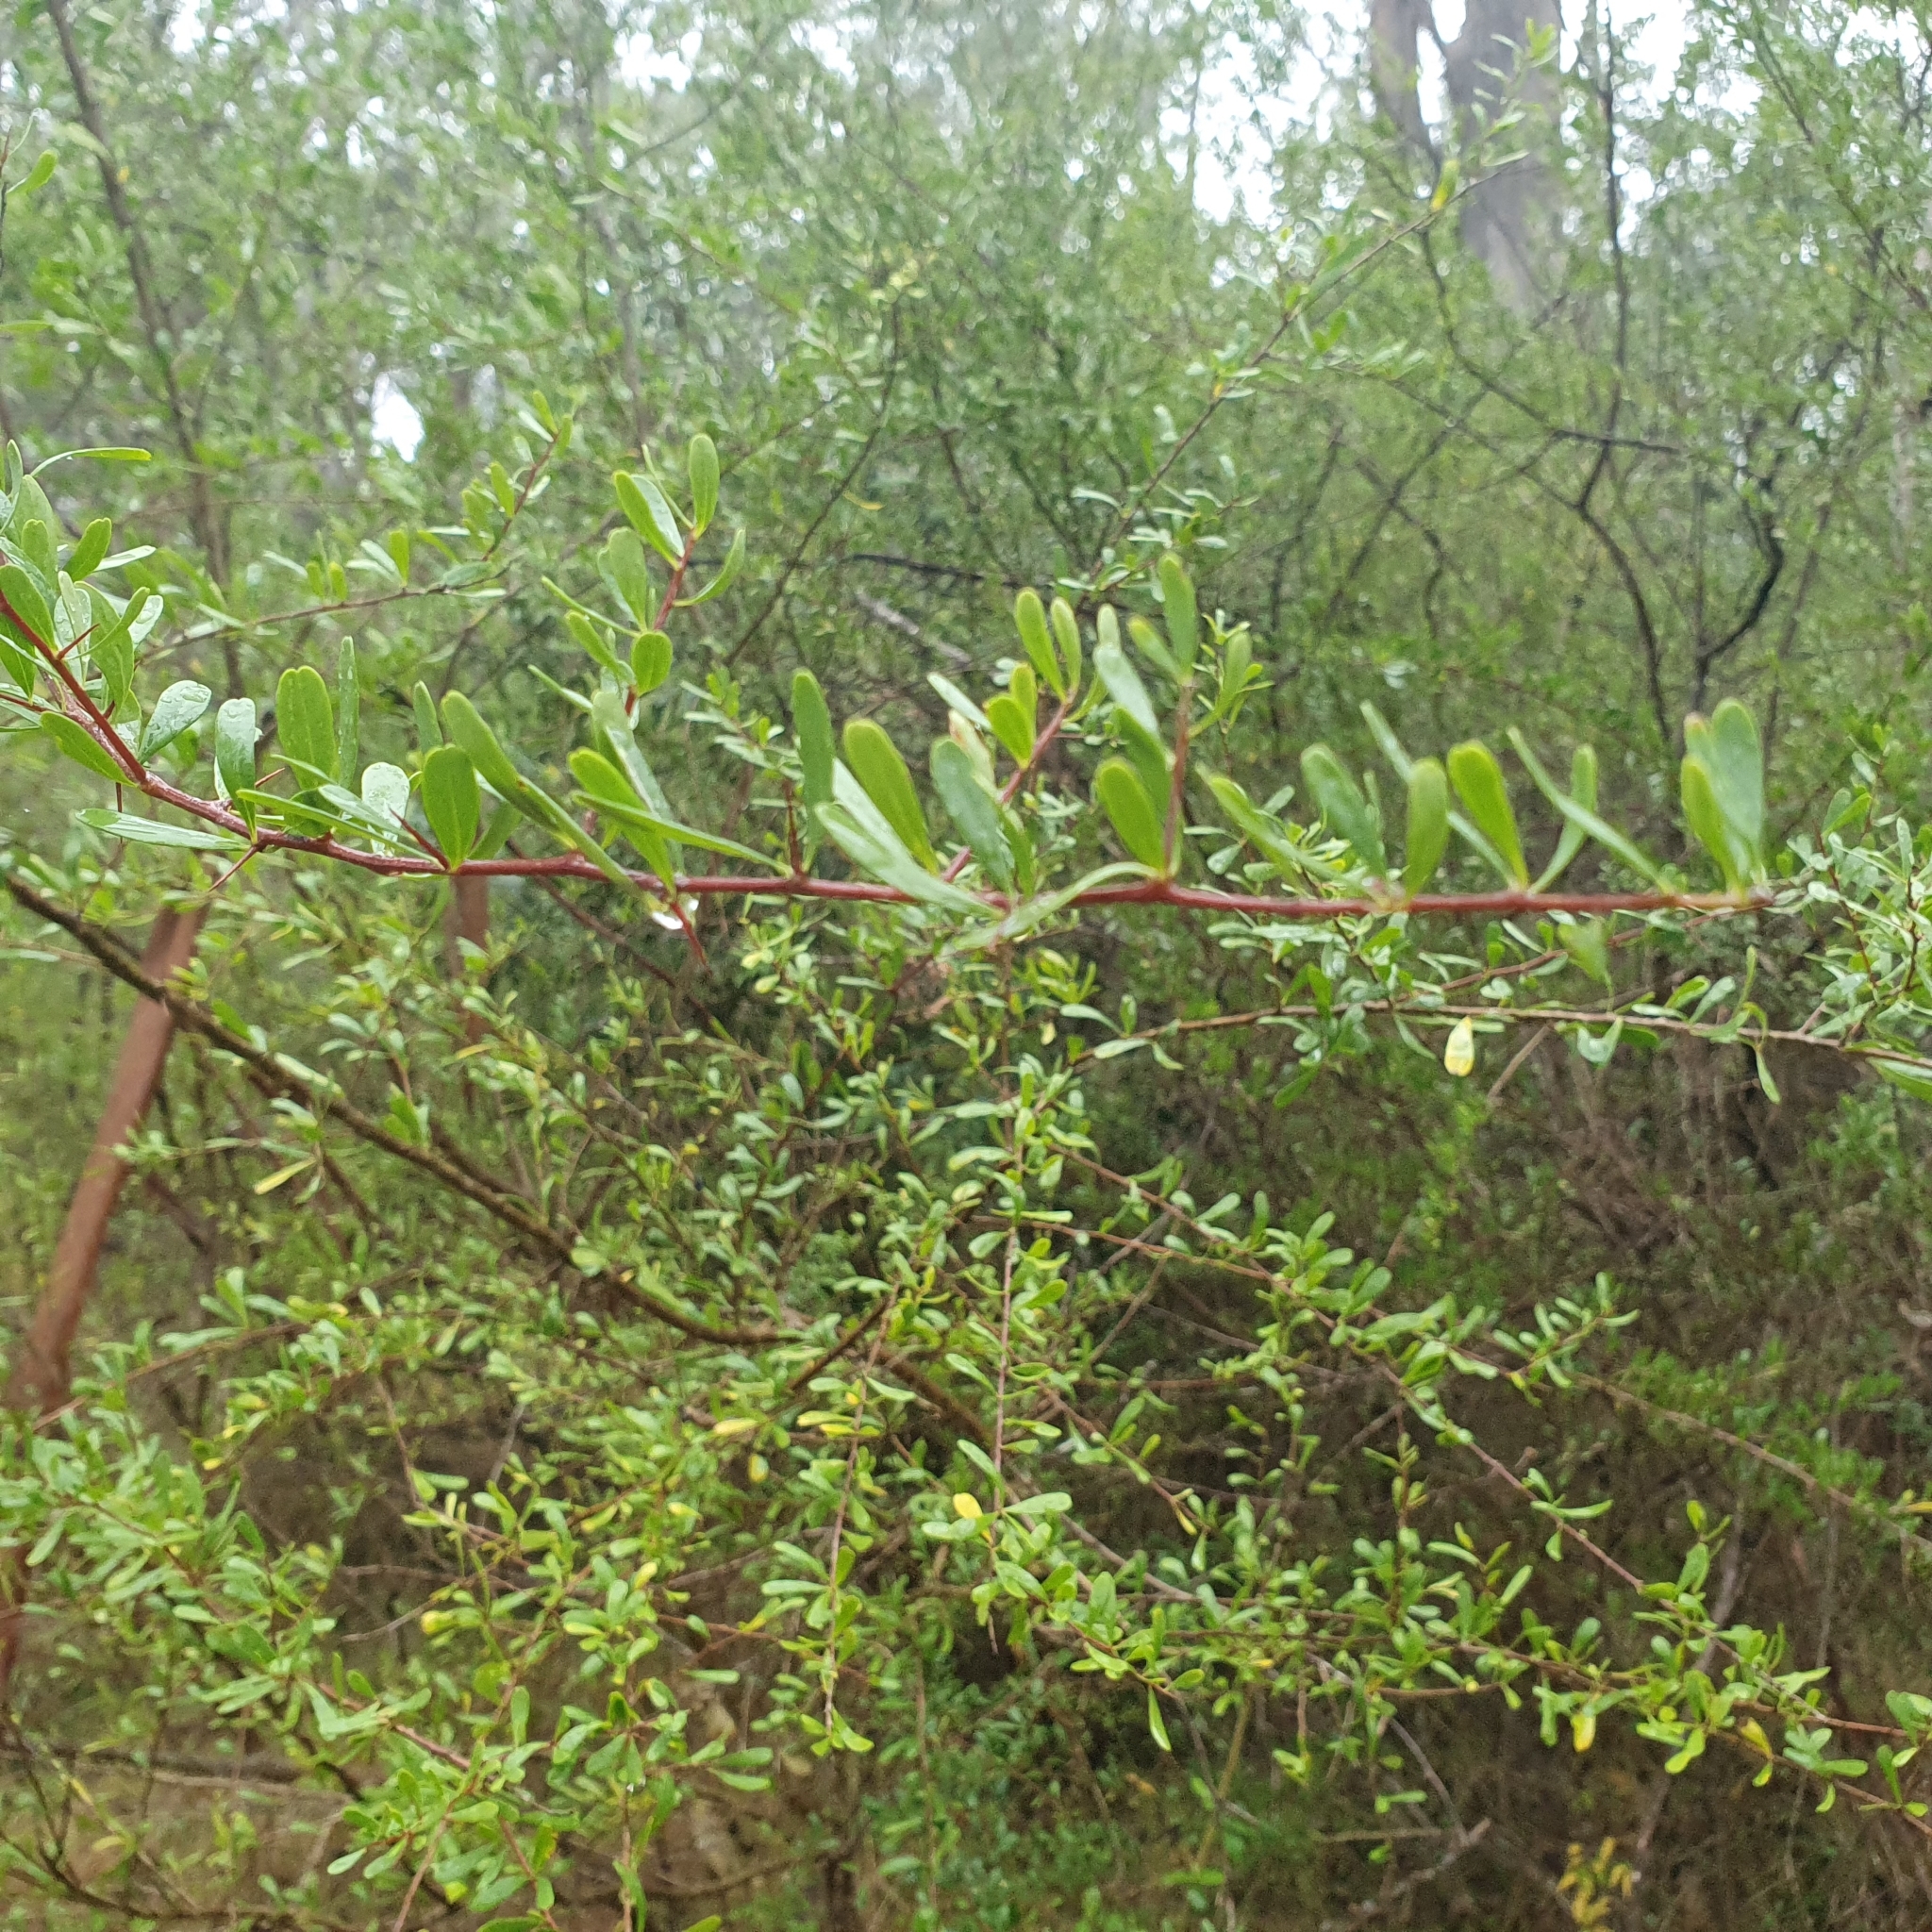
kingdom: Plantae
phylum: Tracheophyta
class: Magnoliopsida
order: Apiales
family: Pittosporaceae
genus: Bursaria
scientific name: Bursaria spinosa
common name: Australian blackthorn
